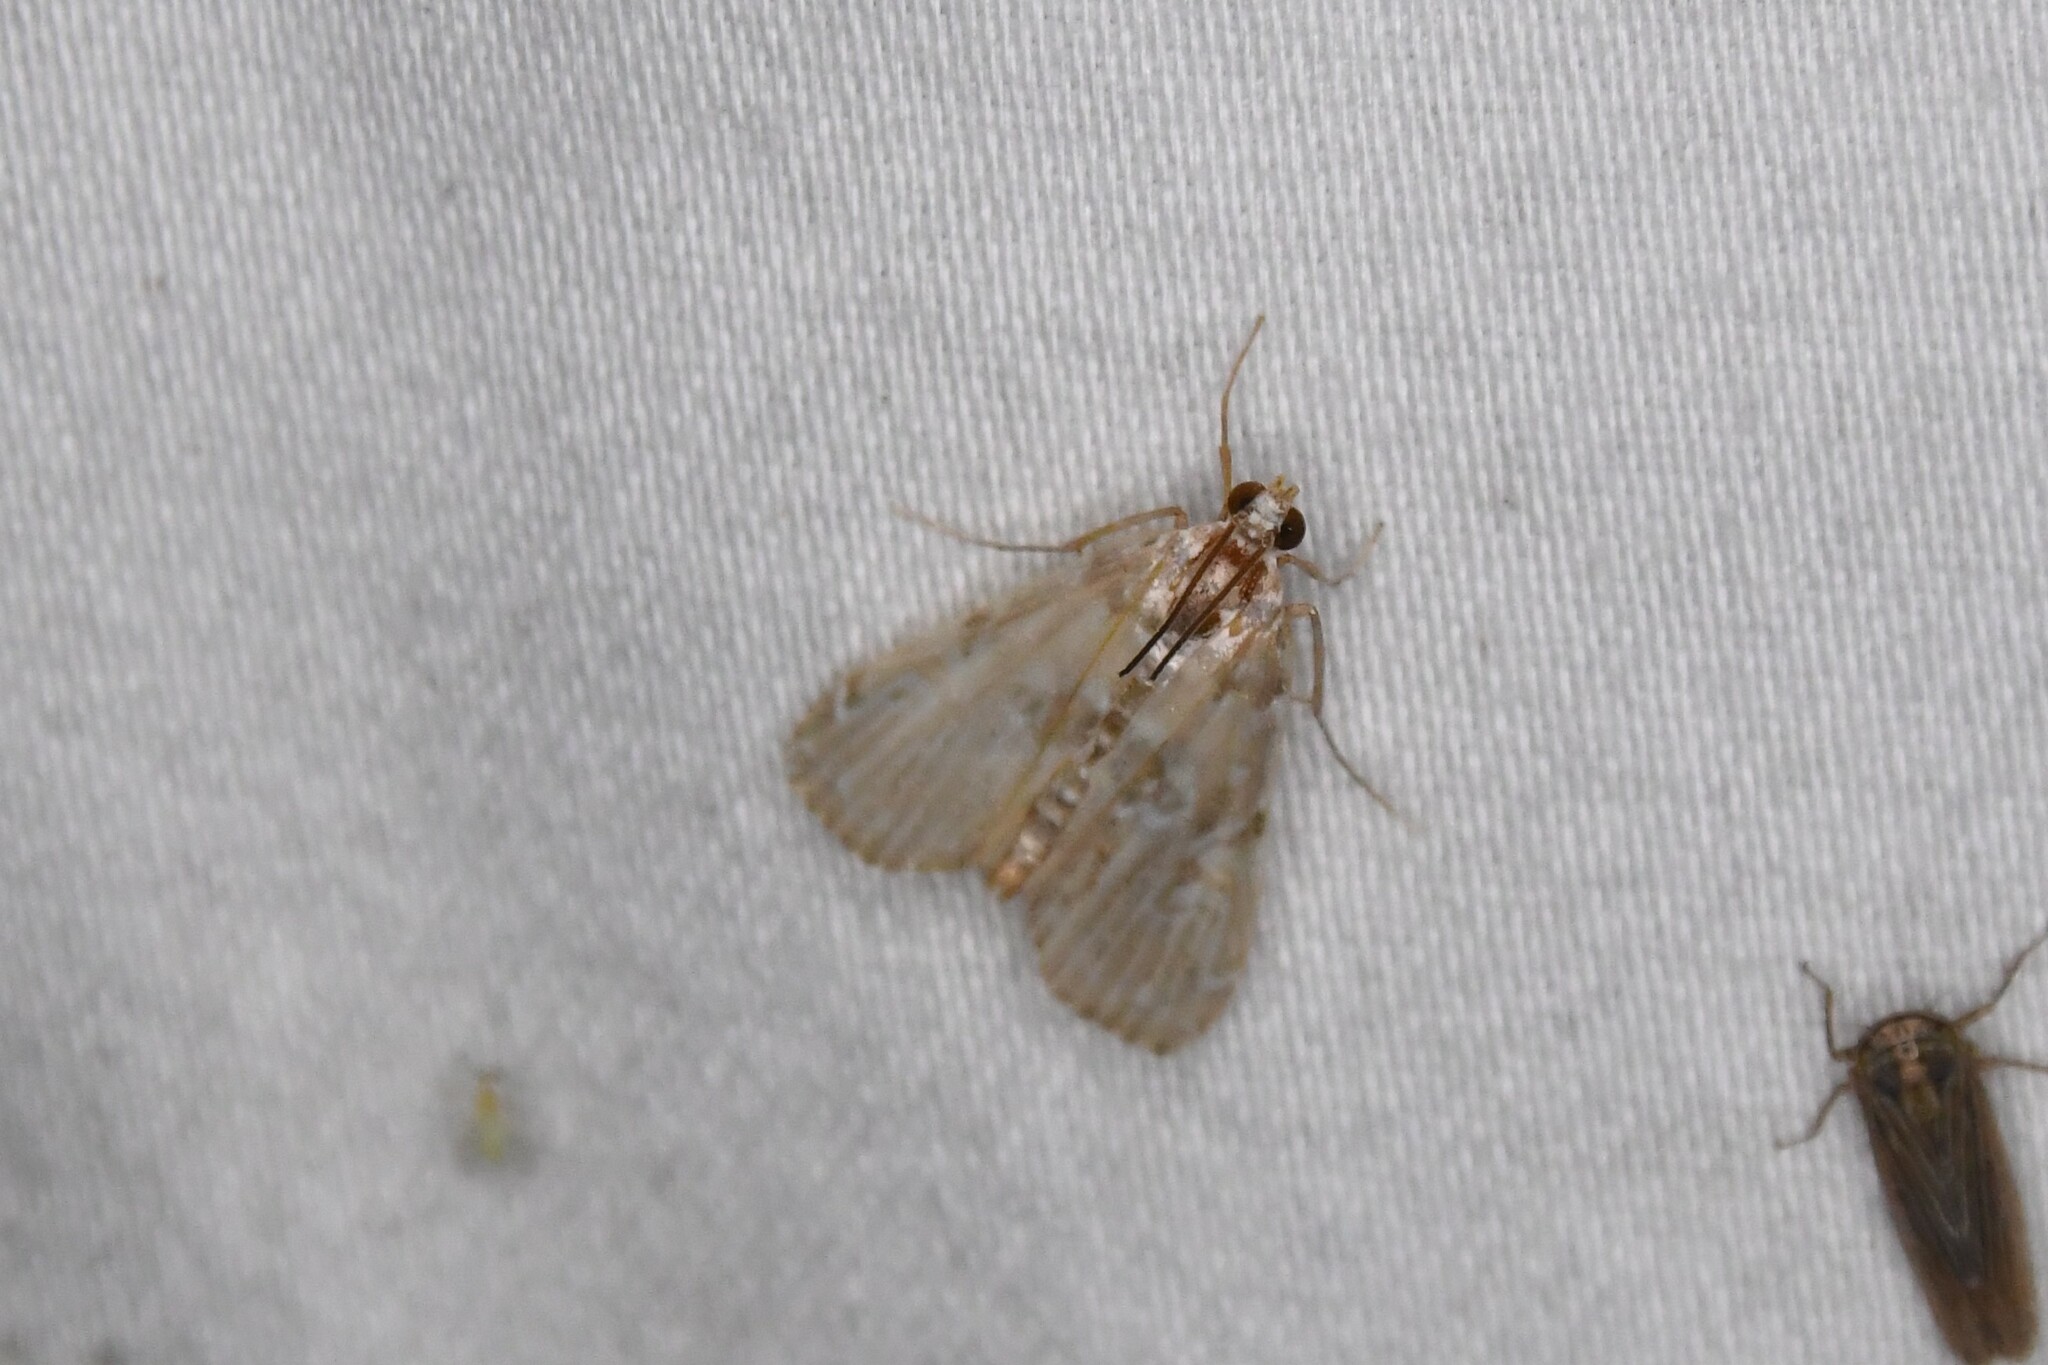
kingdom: Animalia
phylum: Arthropoda
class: Insecta
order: Lepidoptera
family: Crambidae
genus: Elophila
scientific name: Elophila gyralis
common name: Waterlily borer moth
